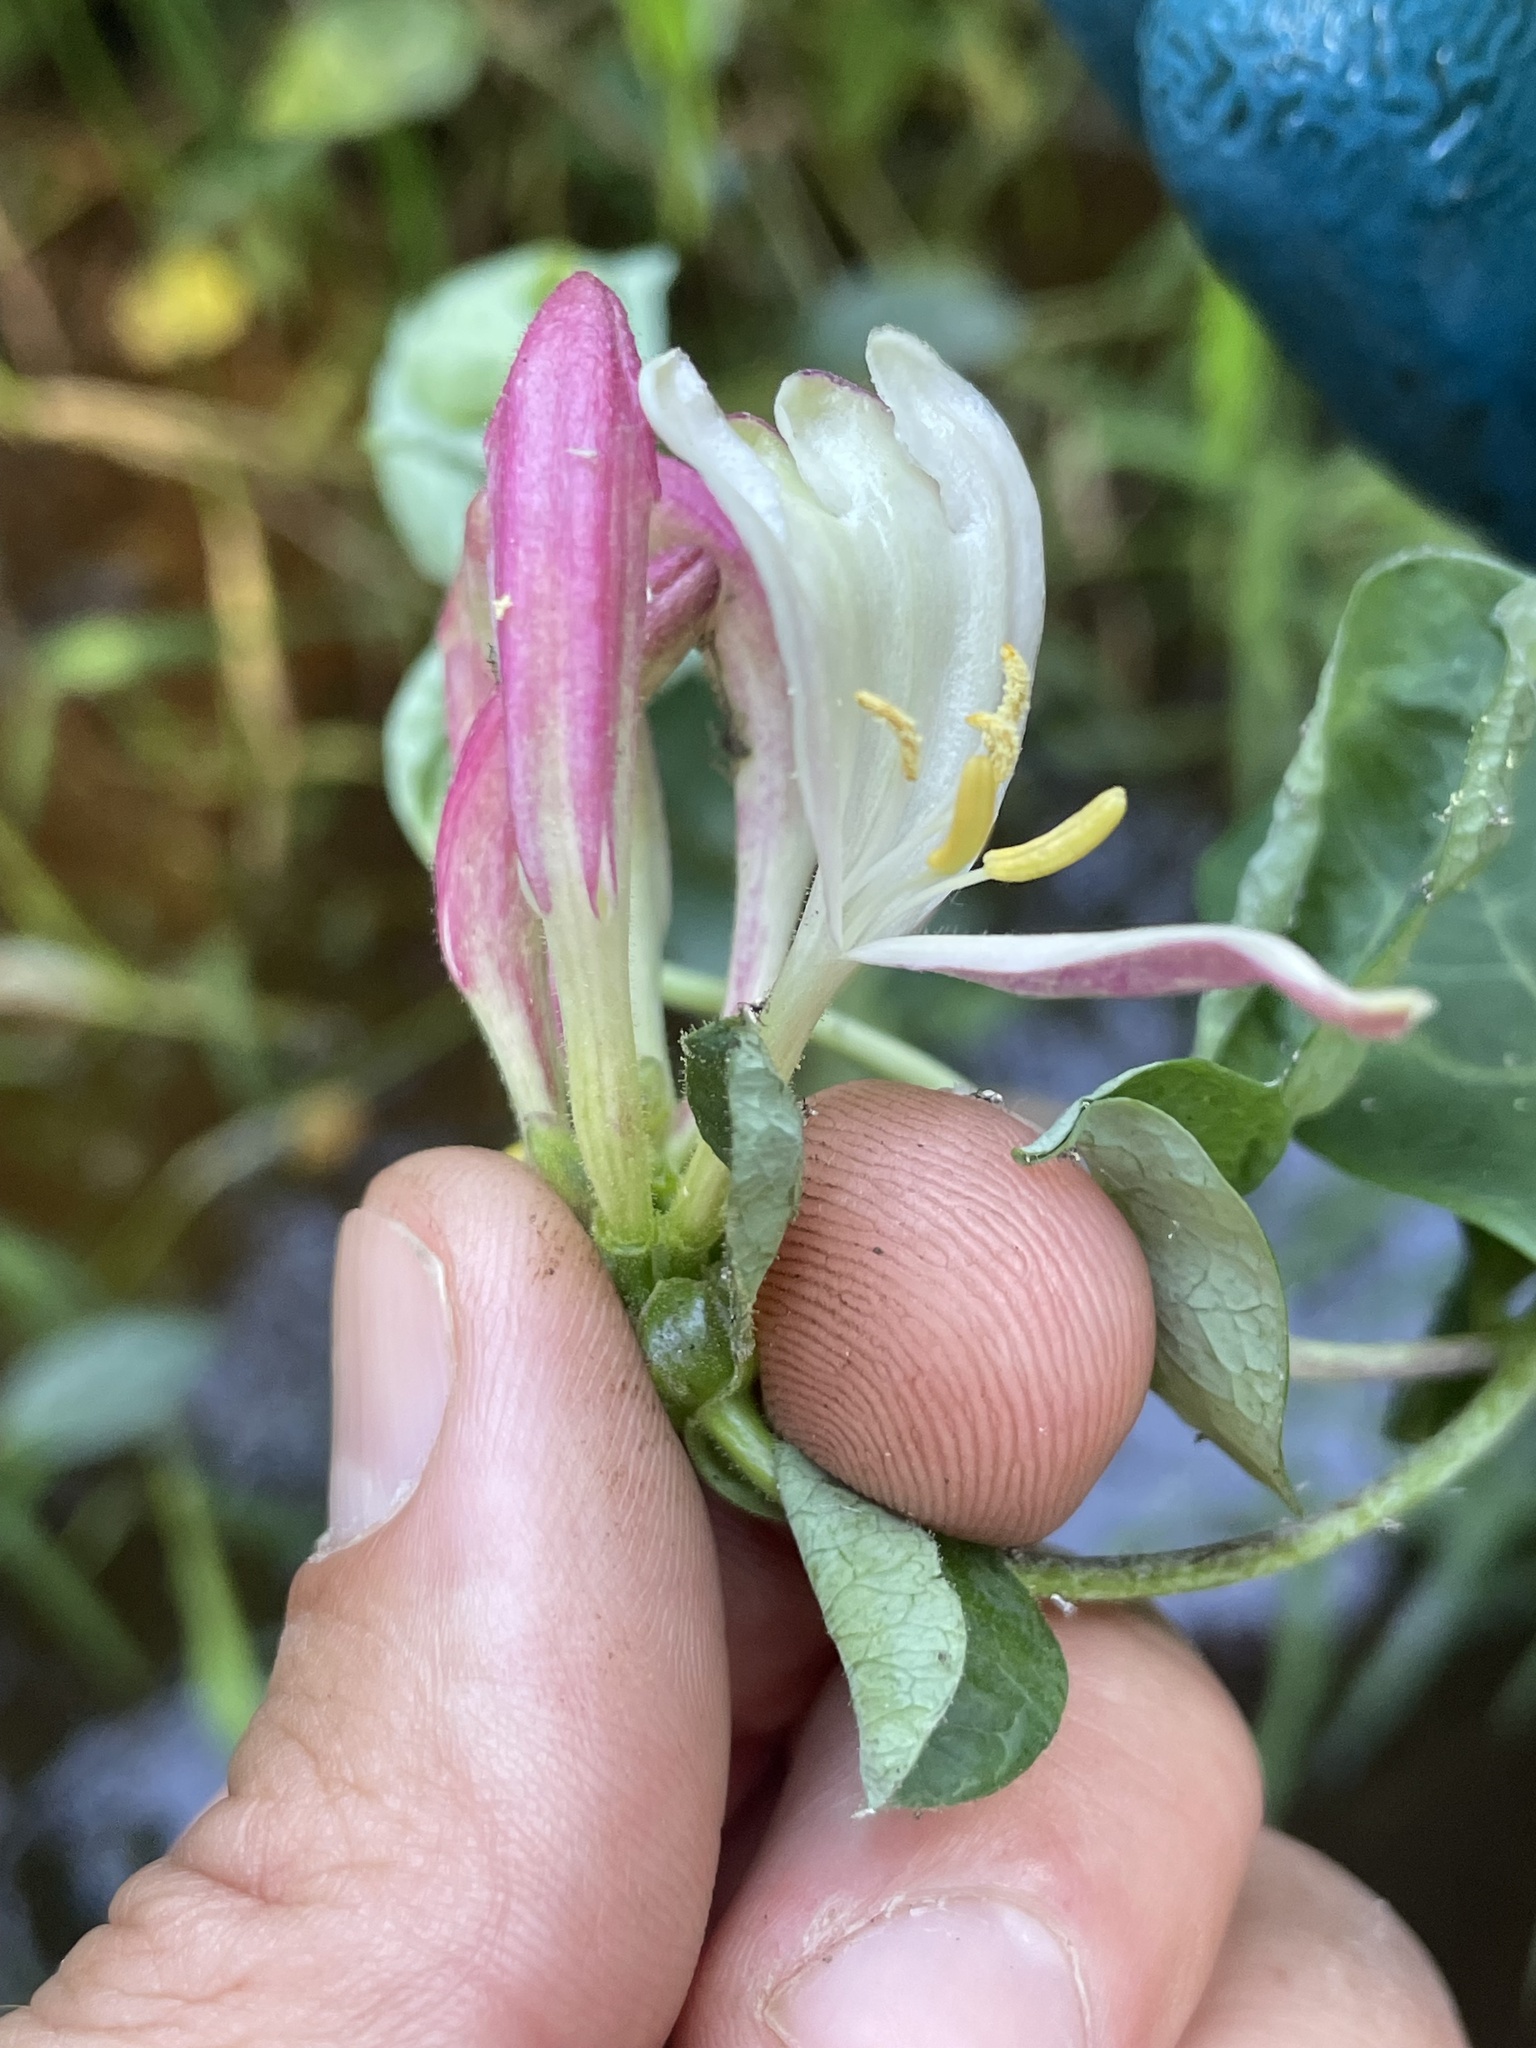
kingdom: Plantae
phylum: Tracheophyta
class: Magnoliopsida
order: Dipsacales
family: Caprifoliaceae
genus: Lonicera
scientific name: Lonicera periclymenum
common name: European honeysuckle
